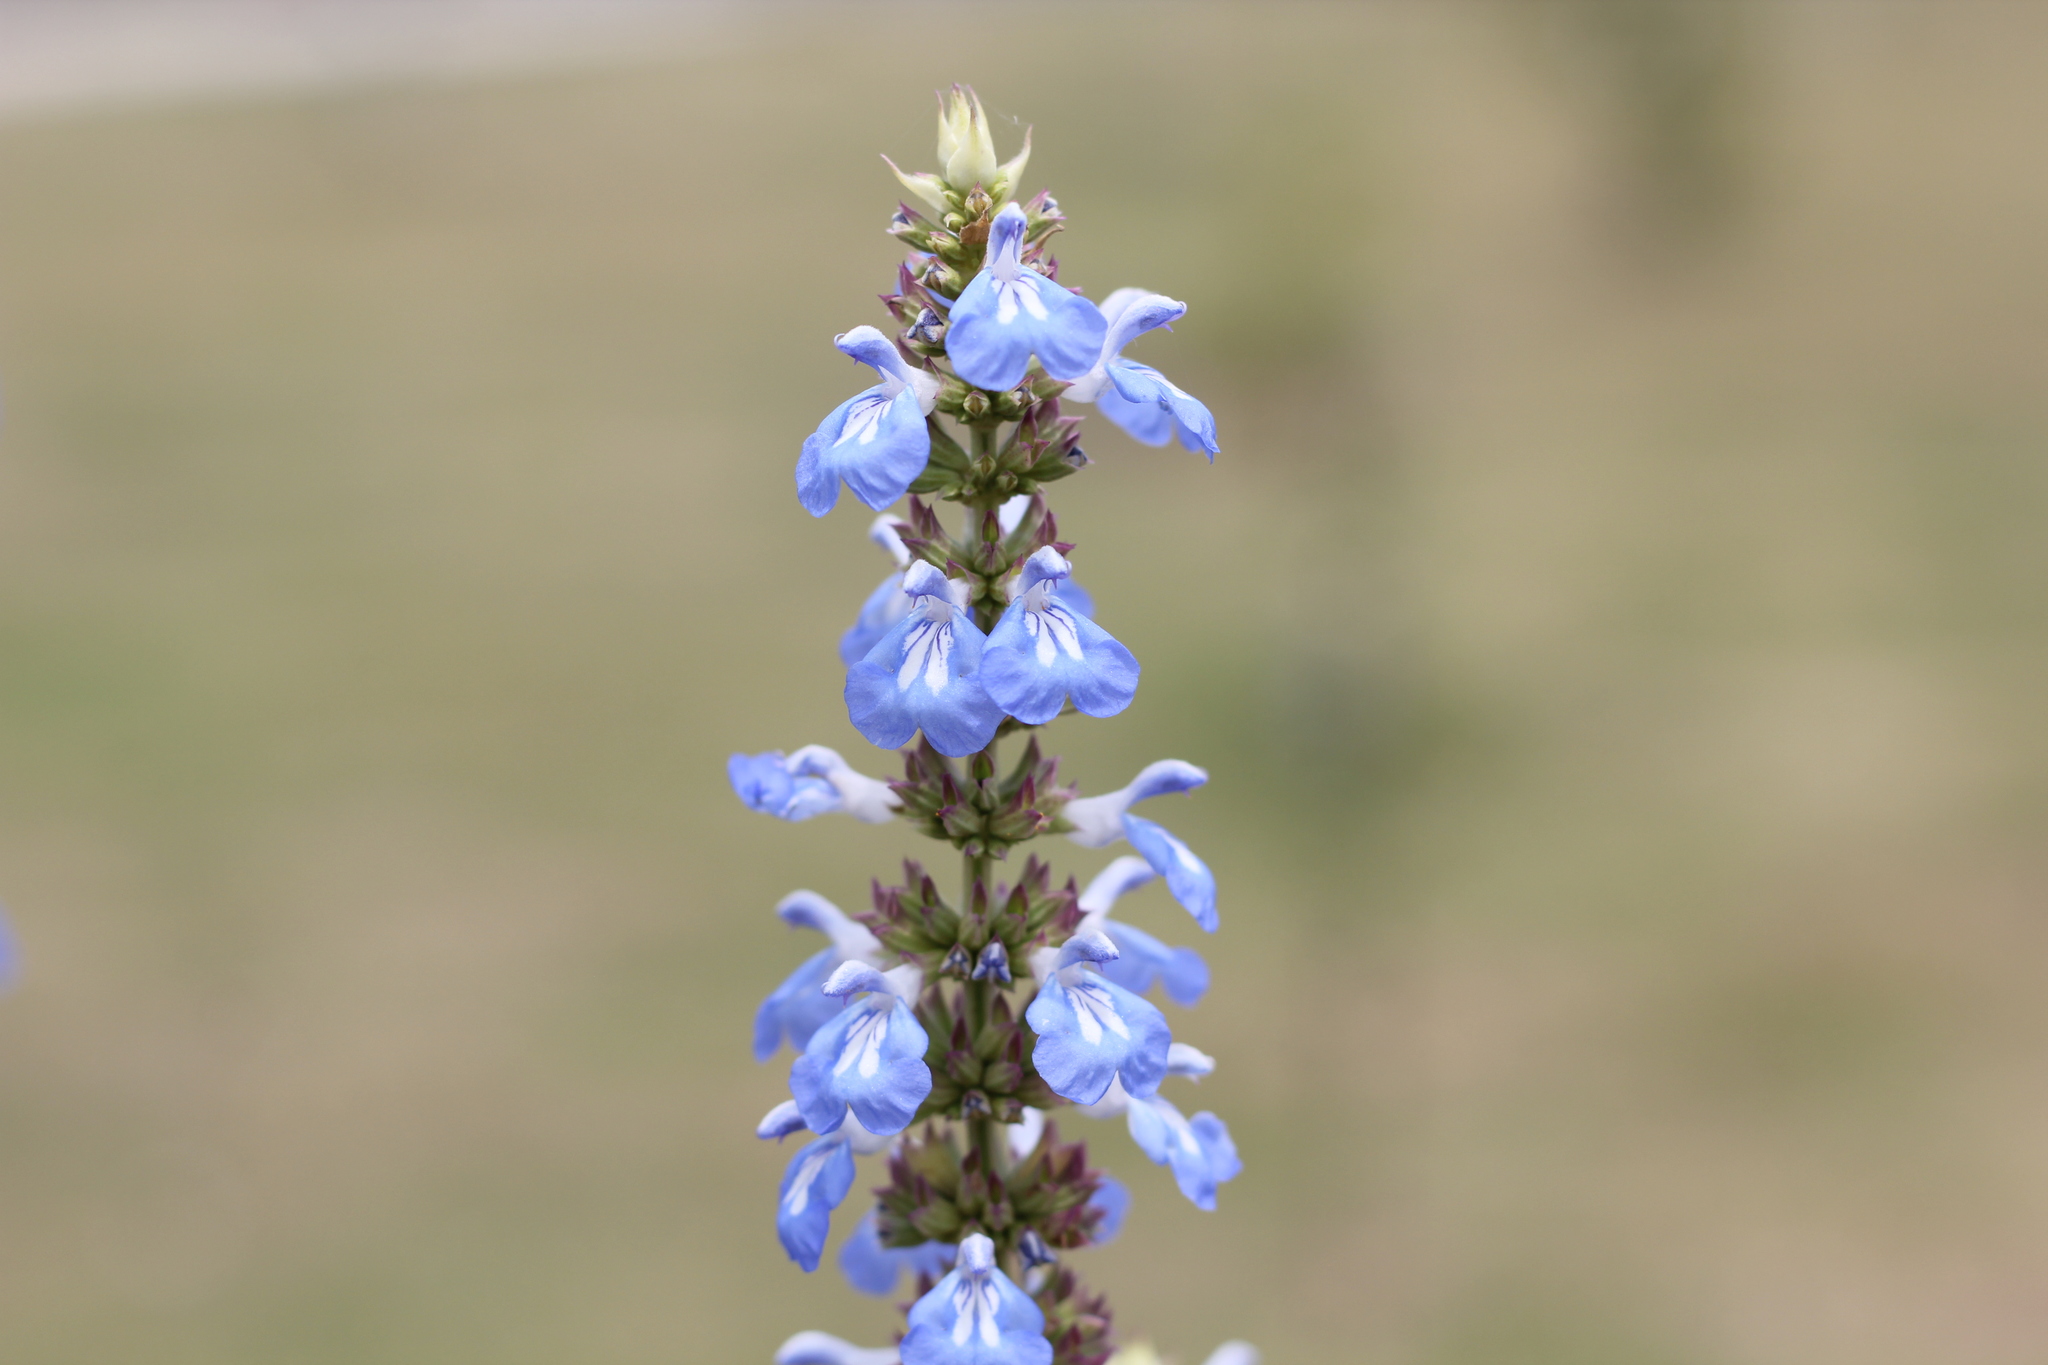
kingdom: Plantae
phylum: Tracheophyta
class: Magnoliopsida
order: Lamiales
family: Lamiaceae
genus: Salvia
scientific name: Salvia uliginosa
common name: Bog sage
